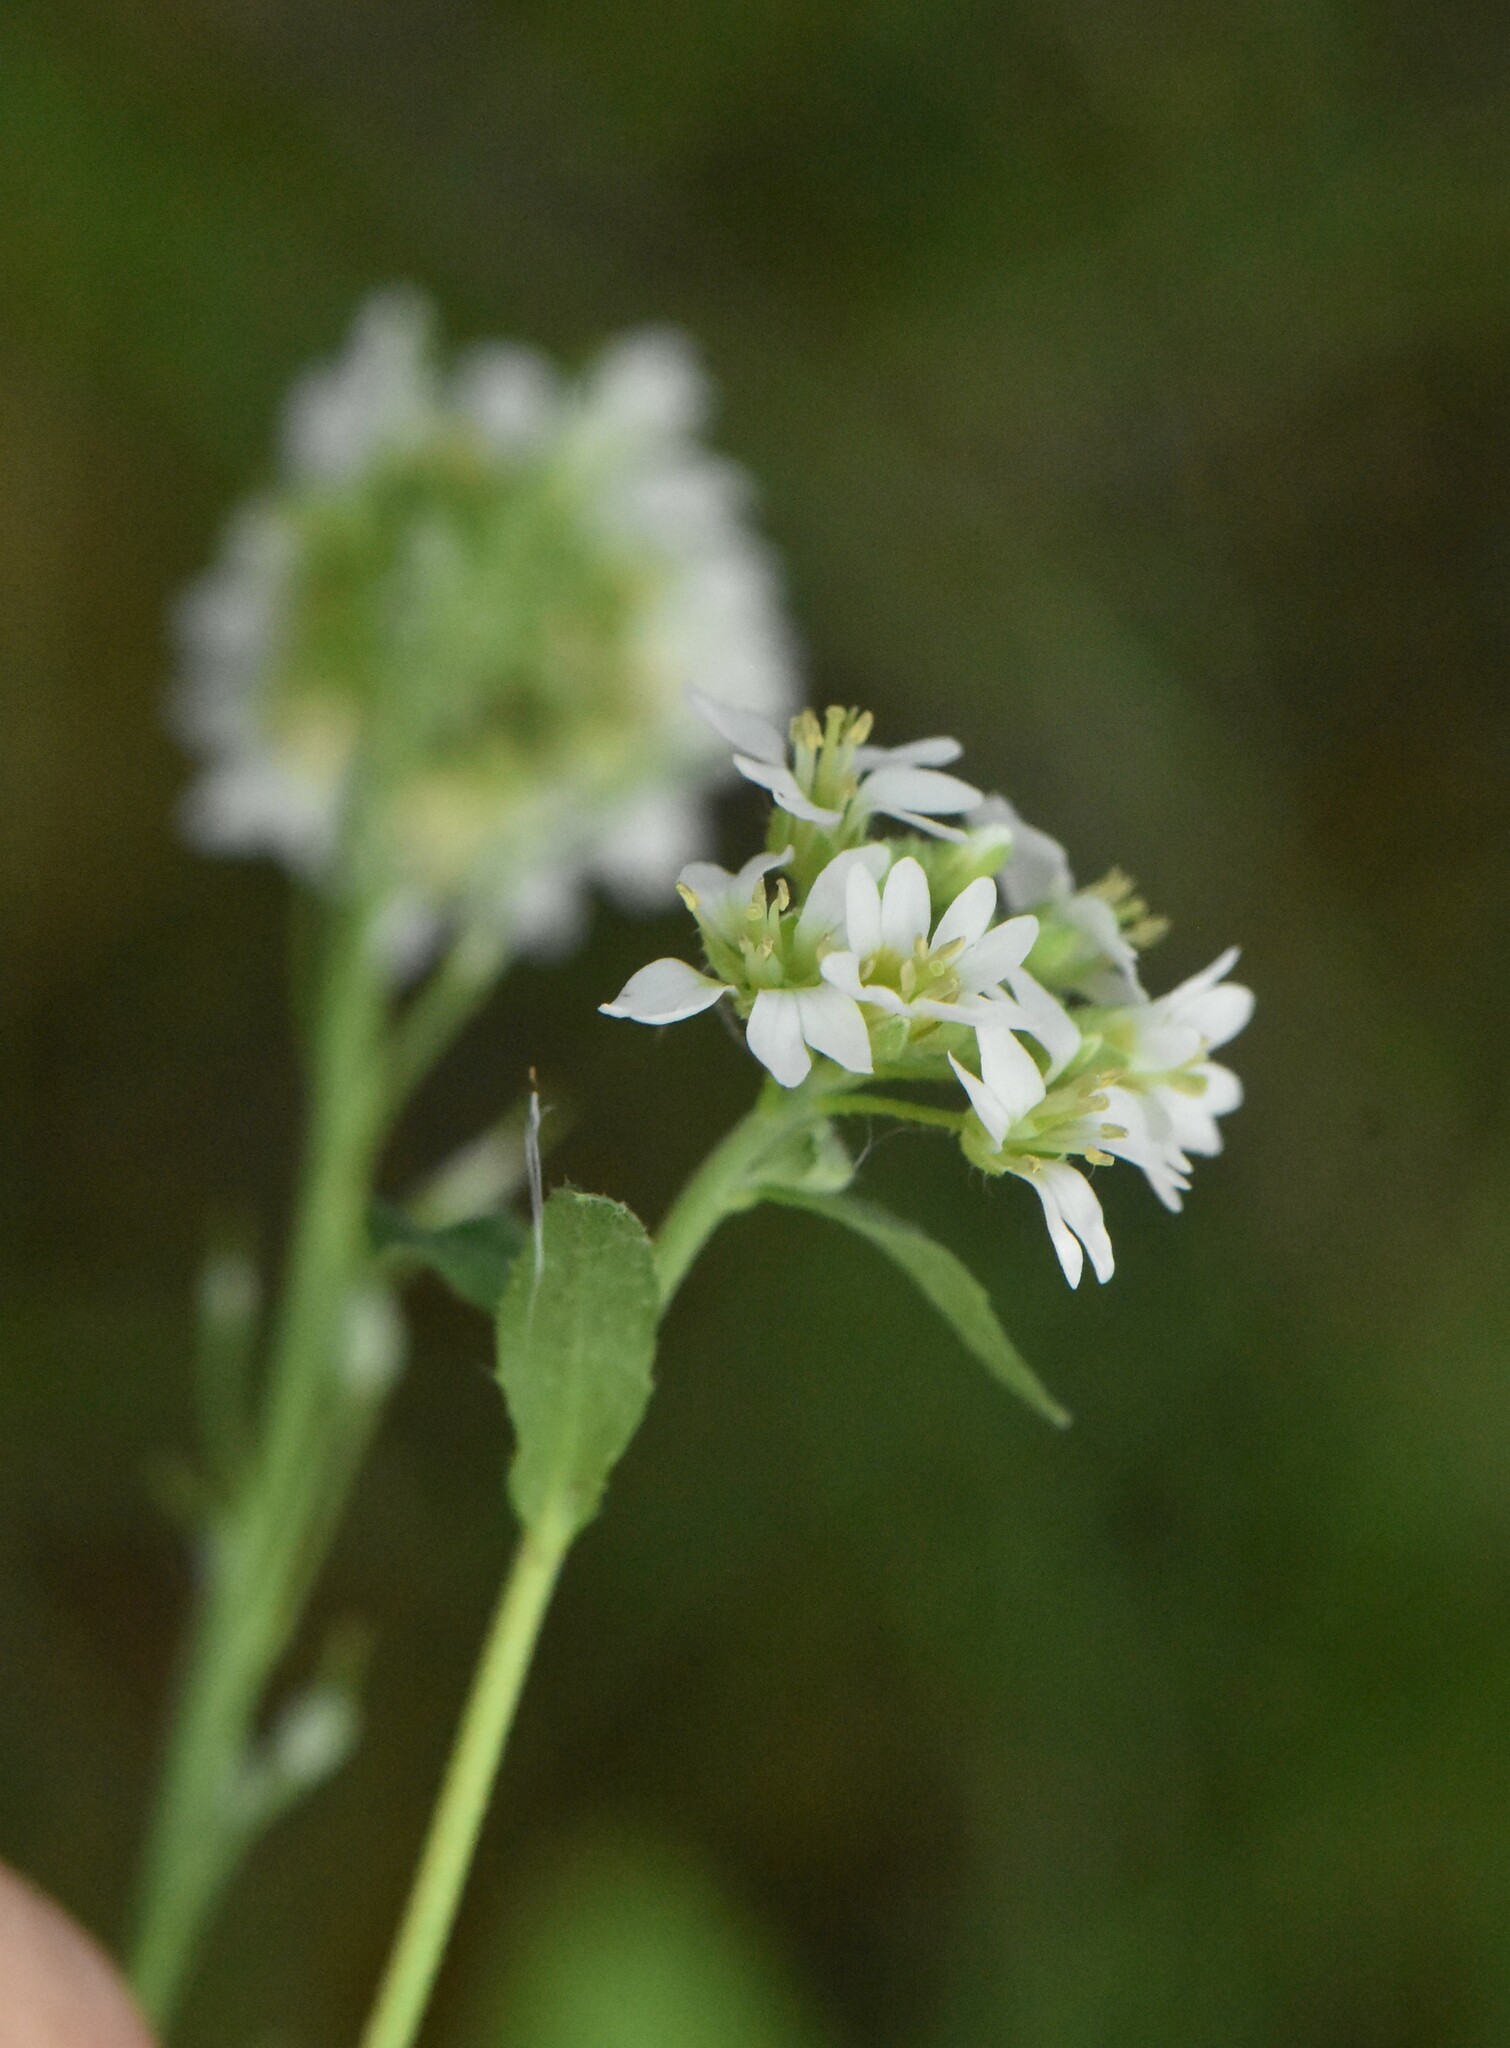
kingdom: Plantae
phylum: Tracheophyta
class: Magnoliopsida
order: Brassicales
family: Brassicaceae
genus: Berteroa
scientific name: Berteroa incana
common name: Hoary alison
